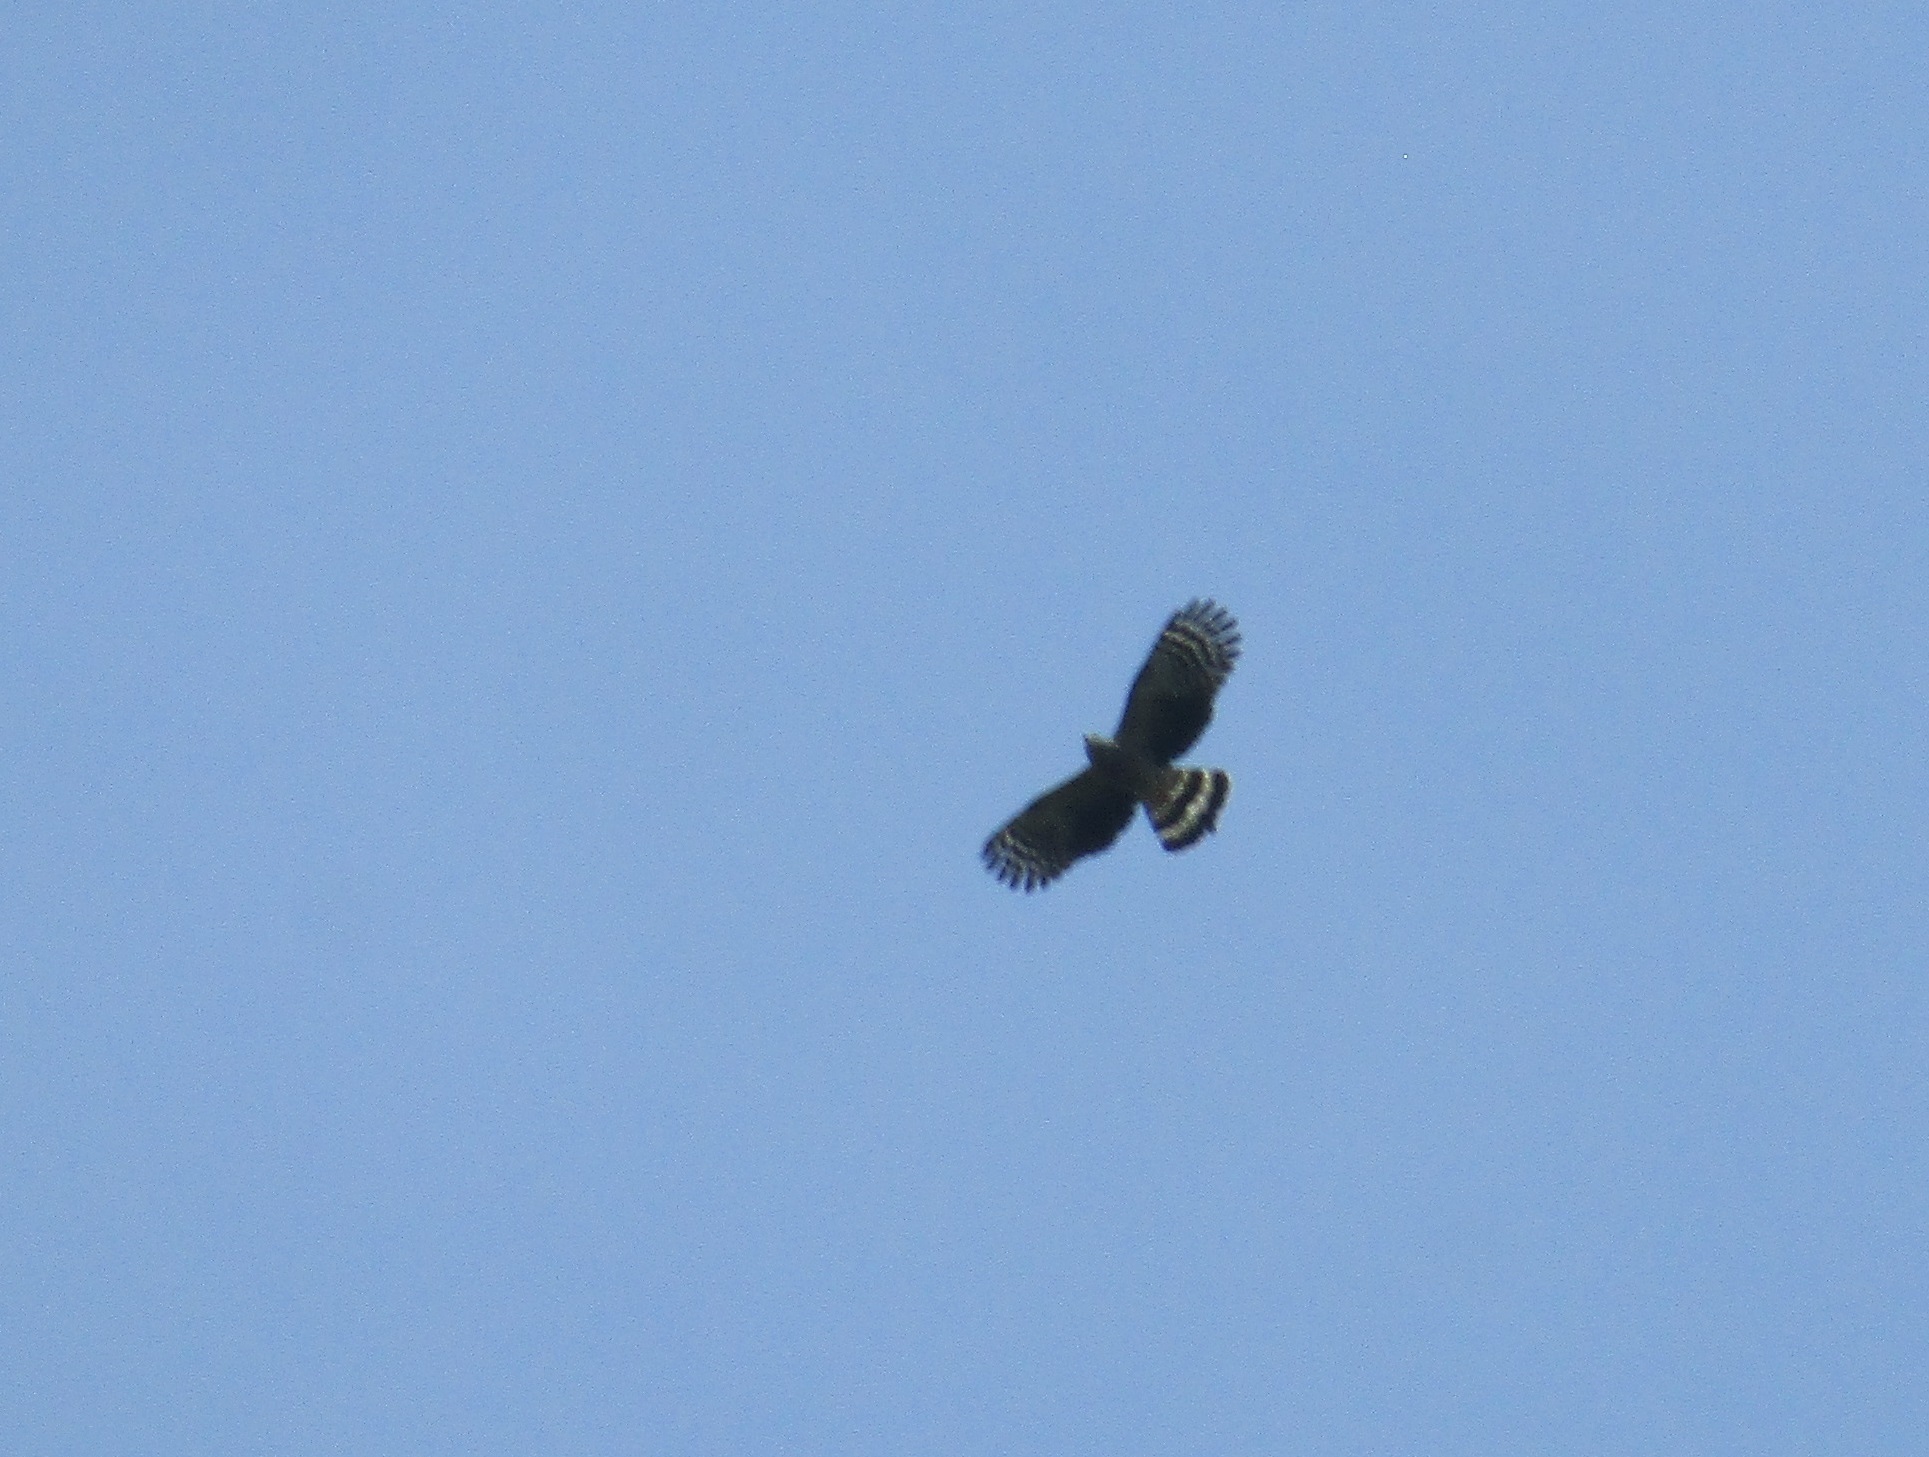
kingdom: Animalia
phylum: Chordata
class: Aves
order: Accipitriformes
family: Accipitridae
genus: Chondrohierax
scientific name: Chondrohierax uncinatus
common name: Hook-billed kite
